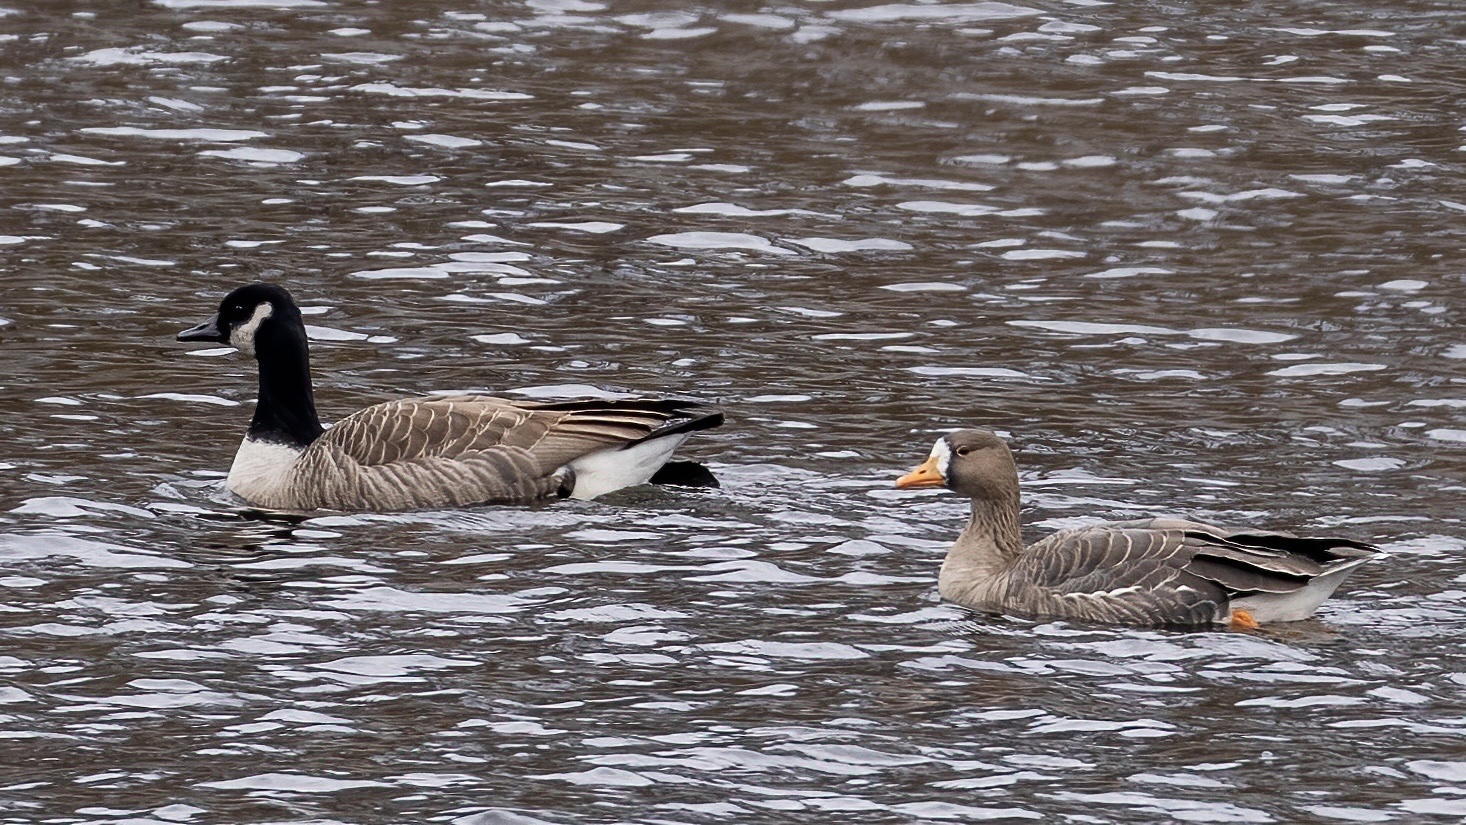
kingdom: Animalia
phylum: Chordata
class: Aves
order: Anseriformes
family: Anatidae
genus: Anser
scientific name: Anser albifrons
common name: Greater white-fronted goose
